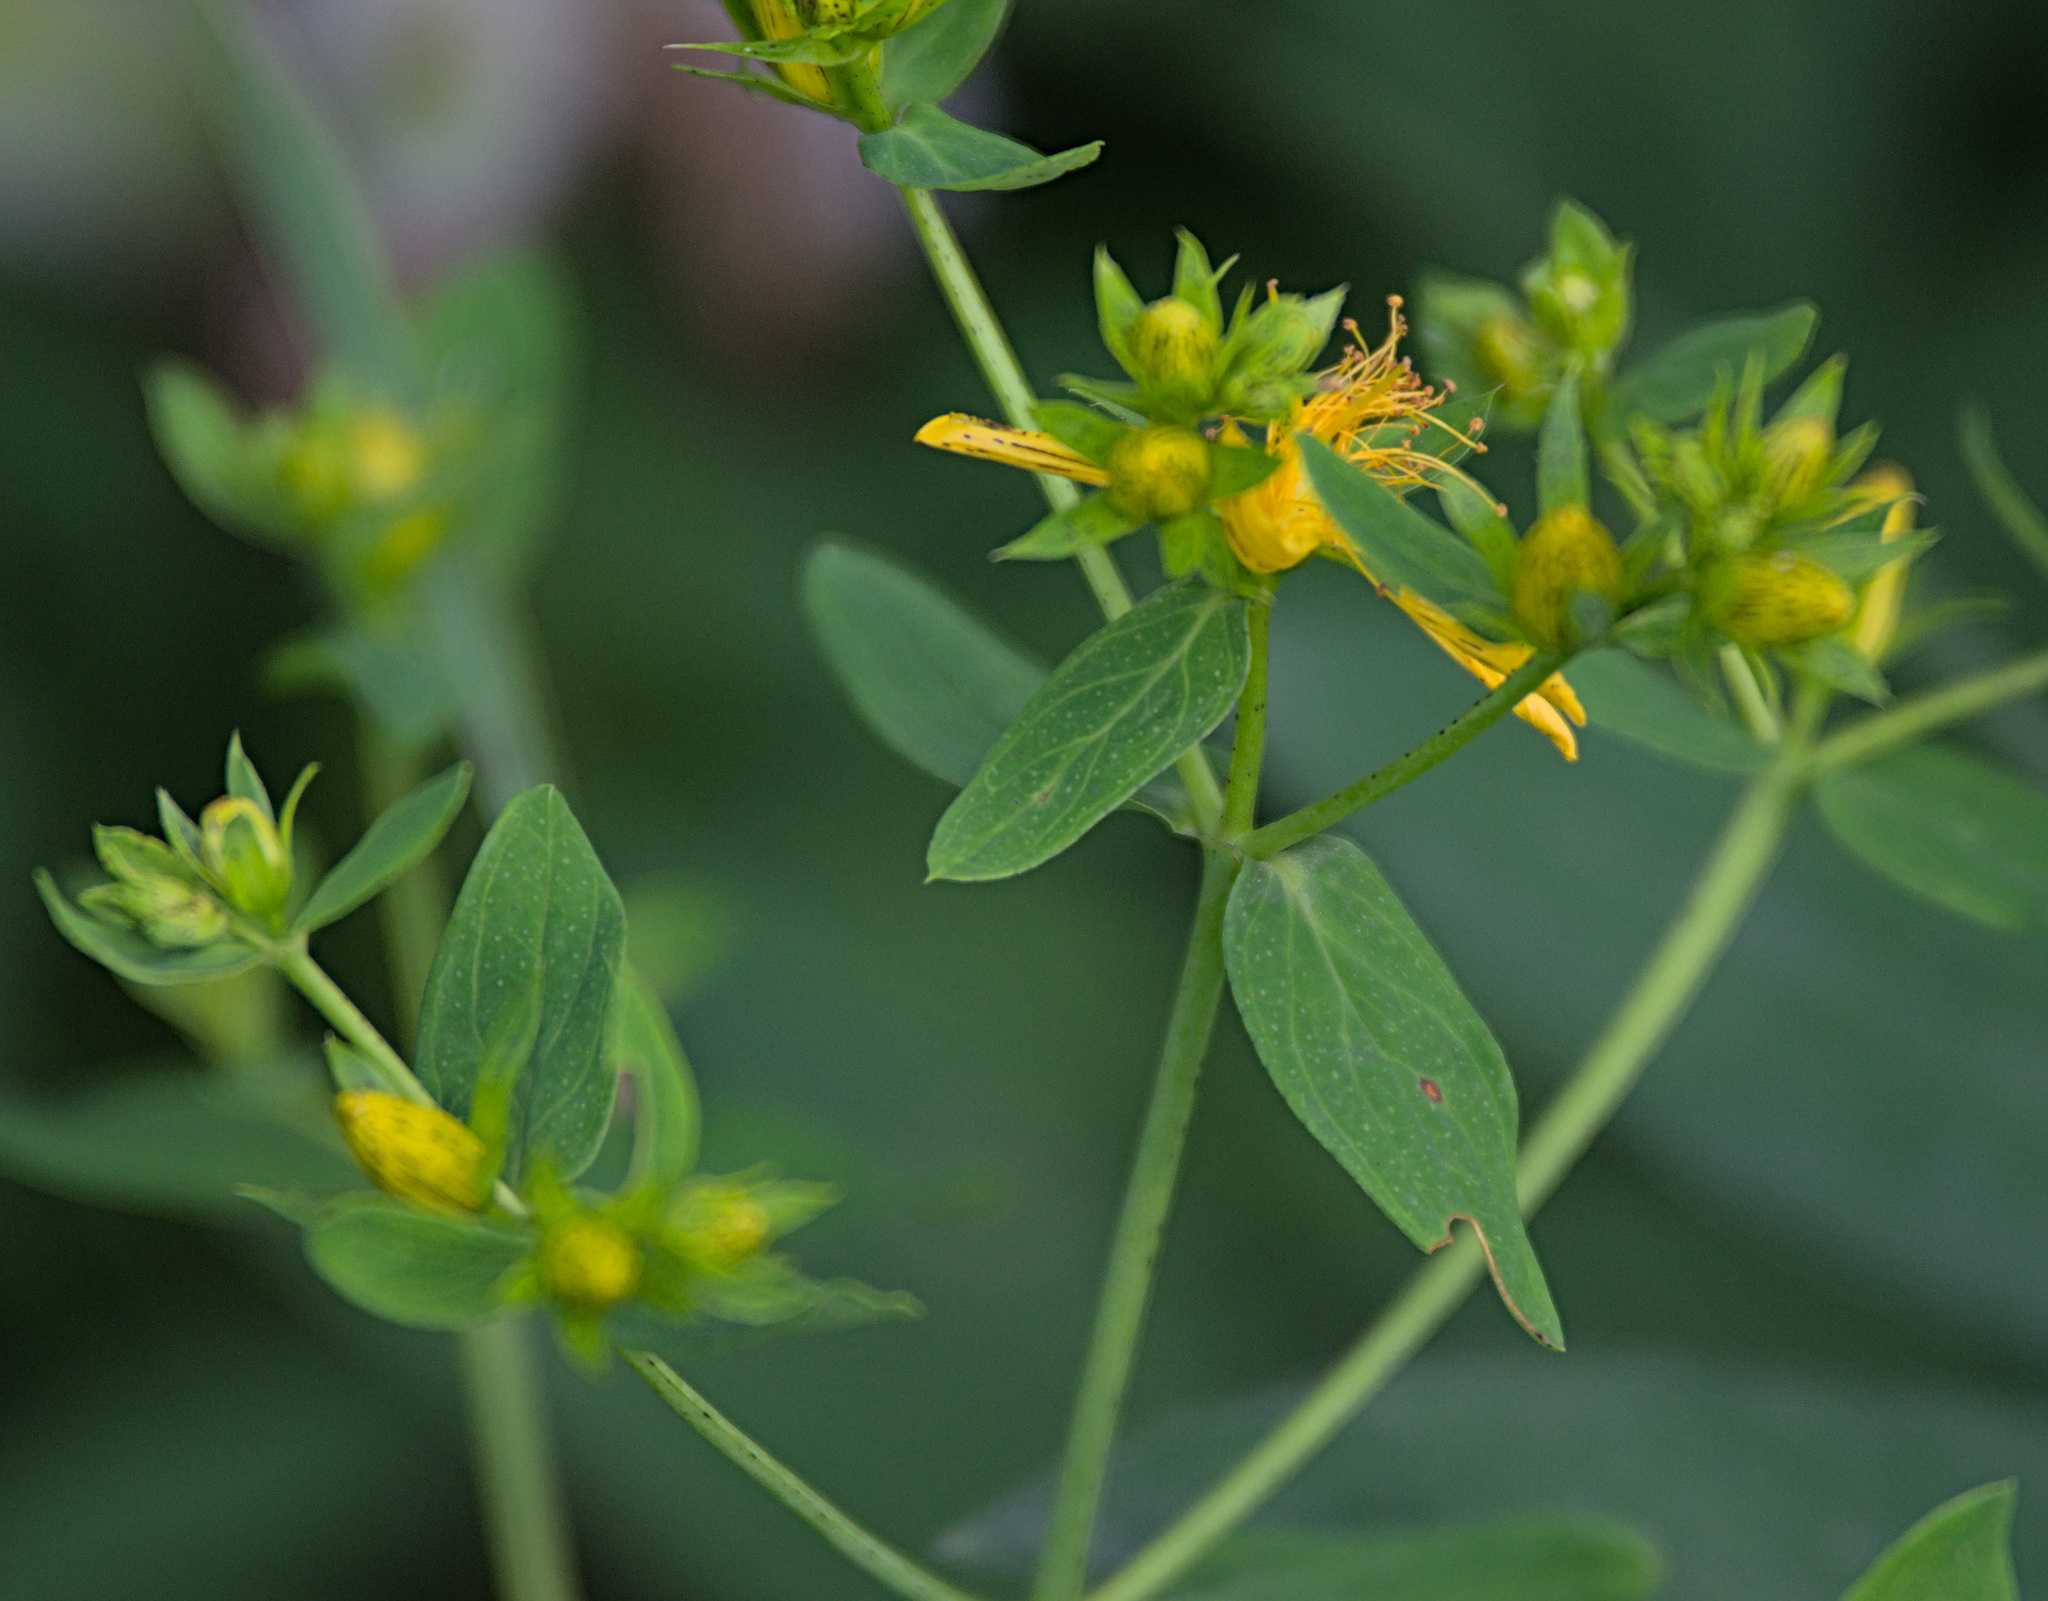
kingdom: Plantae
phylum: Tracheophyta
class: Magnoliopsida
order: Malpighiales
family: Hypericaceae
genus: Hypericum
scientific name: Hypericum perforatum
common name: Common st. johnswort
